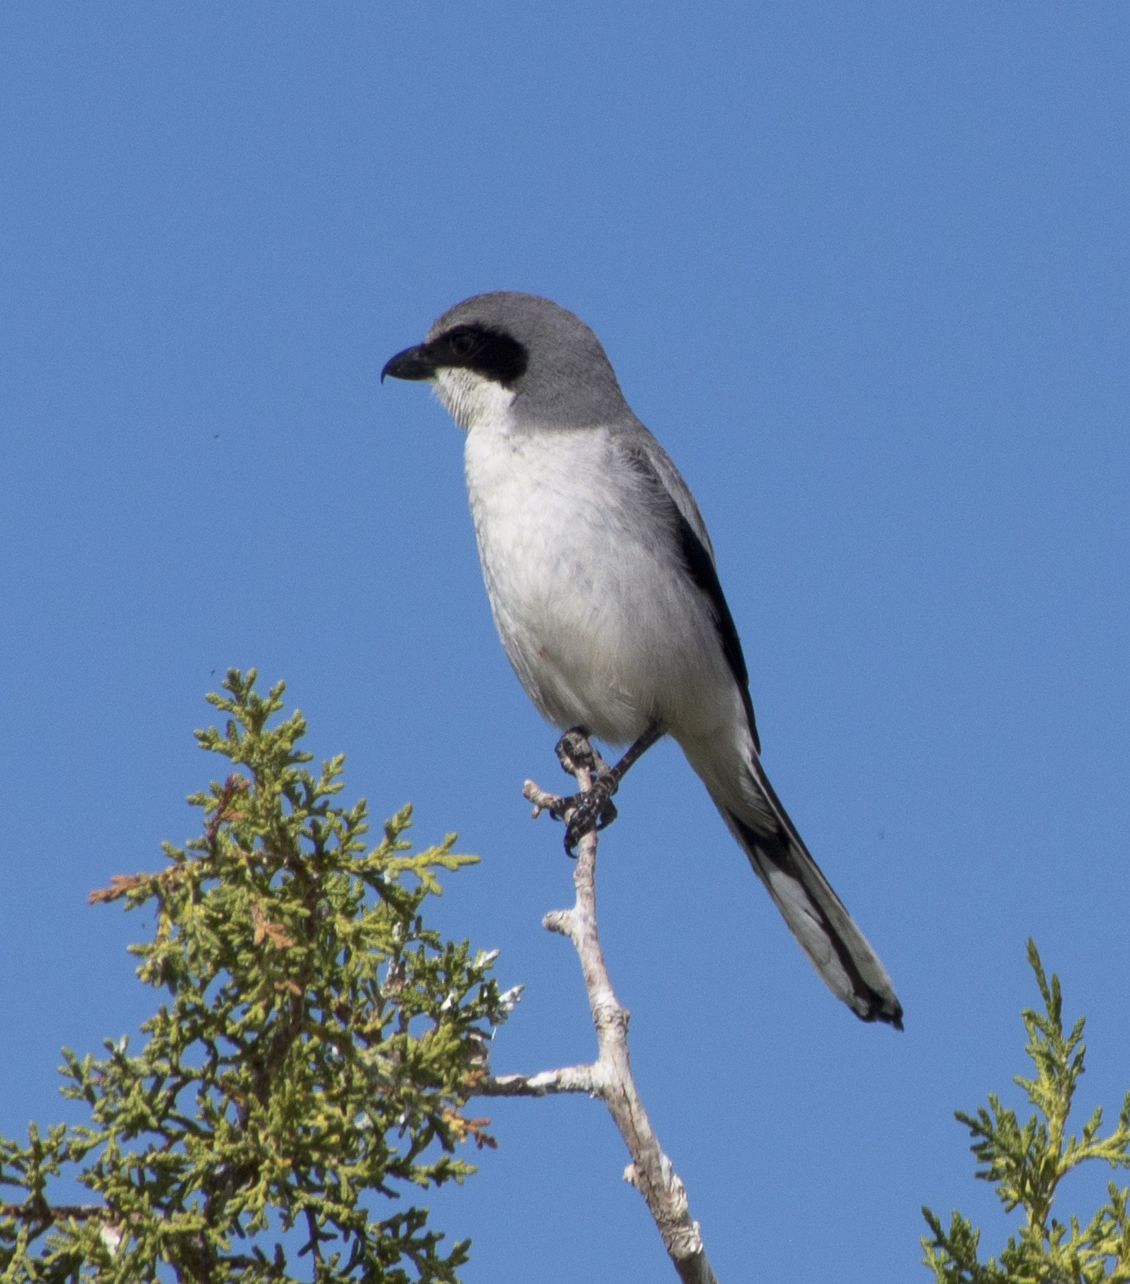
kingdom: Animalia
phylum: Chordata
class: Aves
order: Passeriformes
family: Laniidae
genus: Lanius
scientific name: Lanius ludovicianus
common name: Loggerhead shrike
